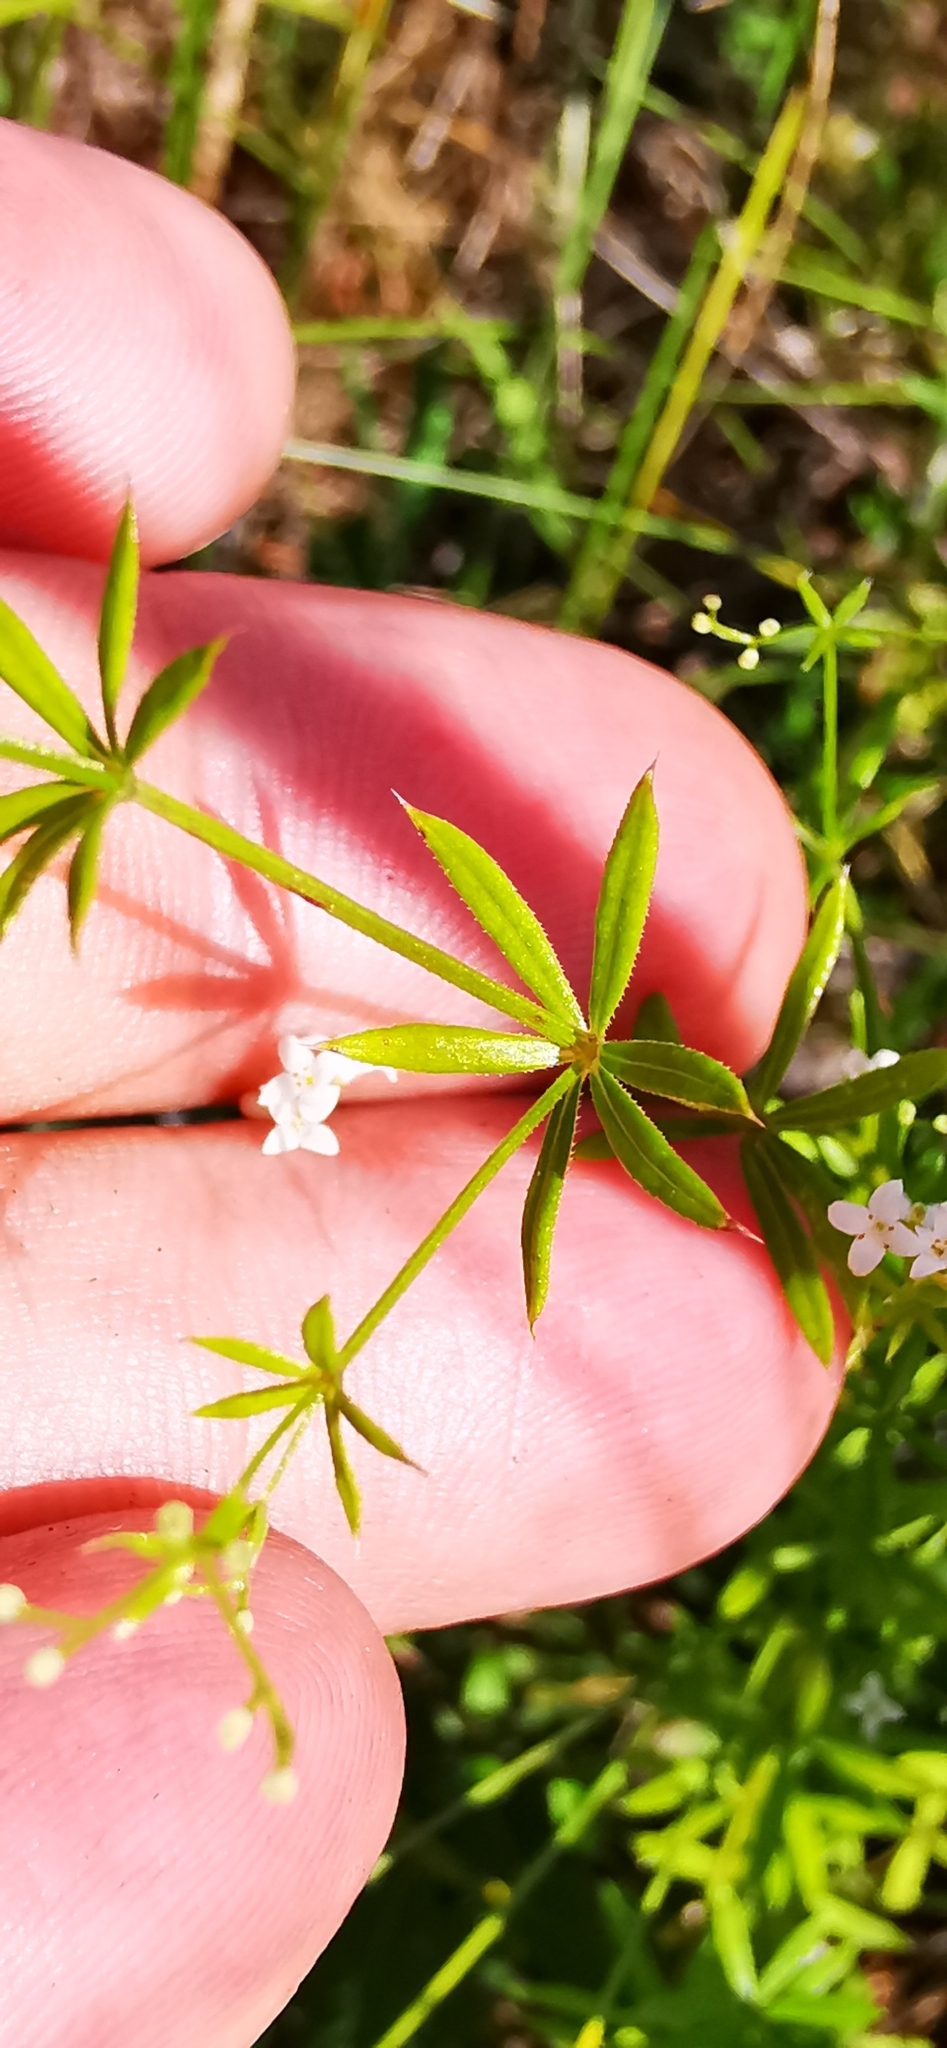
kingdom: Plantae
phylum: Tracheophyta
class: Magnoliopsida
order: Gentianales
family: Rubiaceae
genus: Galium
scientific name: Galium uliginosum
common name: Fen bedstraw
